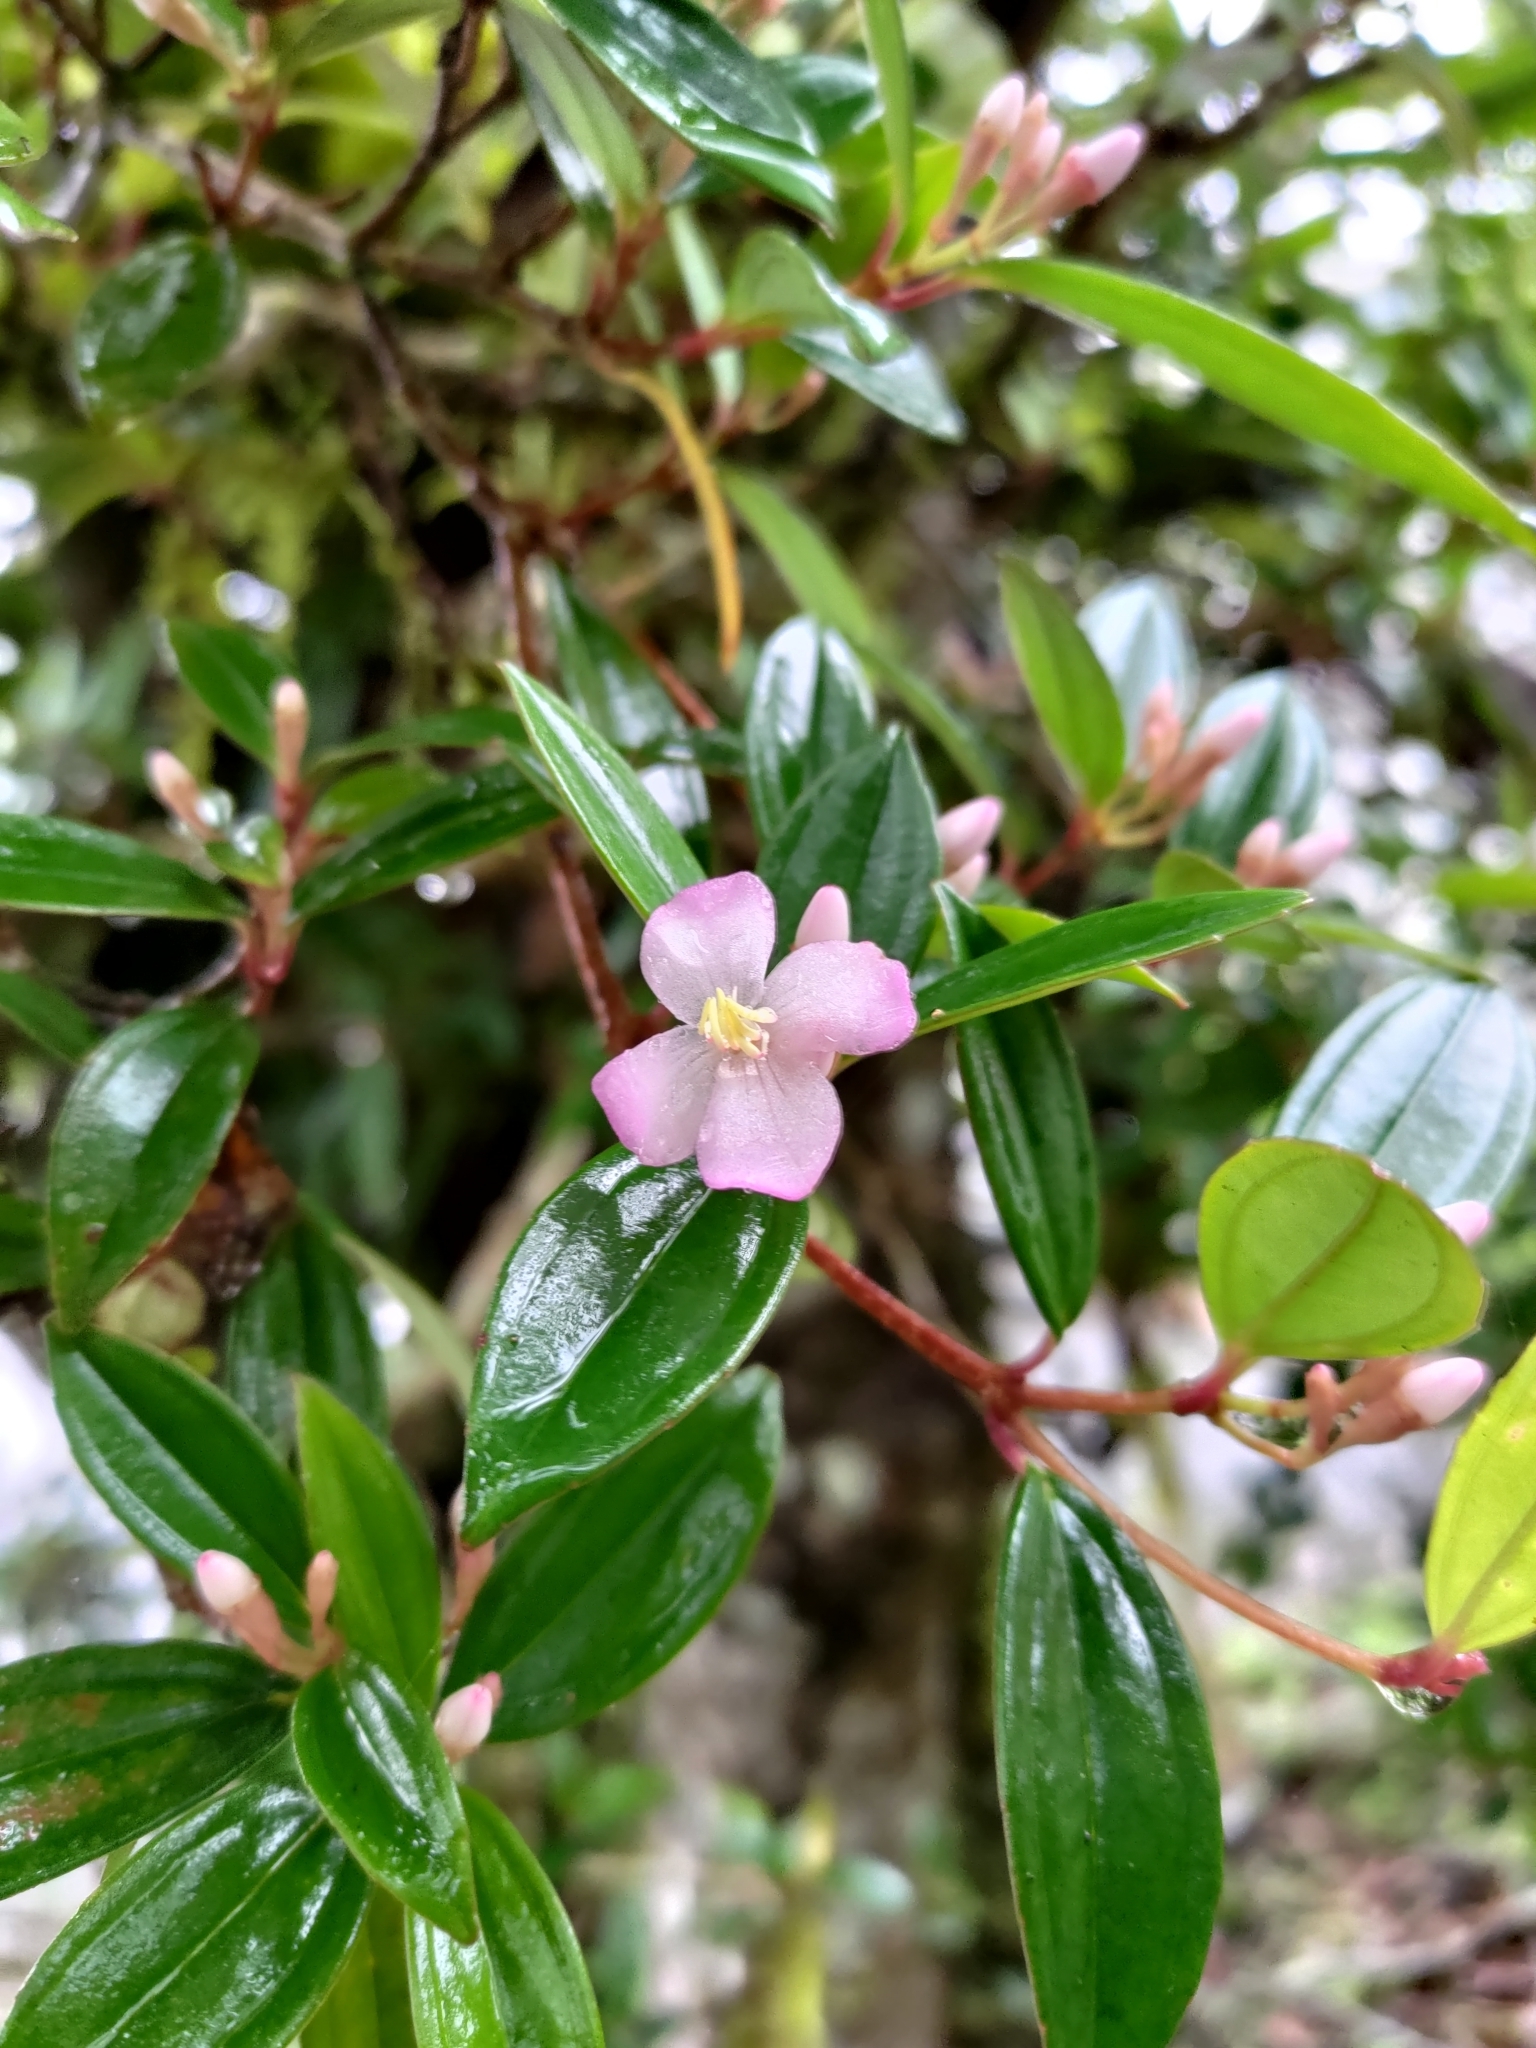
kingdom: Plantae
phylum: Tracheophyta
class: Magnoliopsida
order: Myrtales
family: Melastomataceae
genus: Medinilla
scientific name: Medinilla fengii
